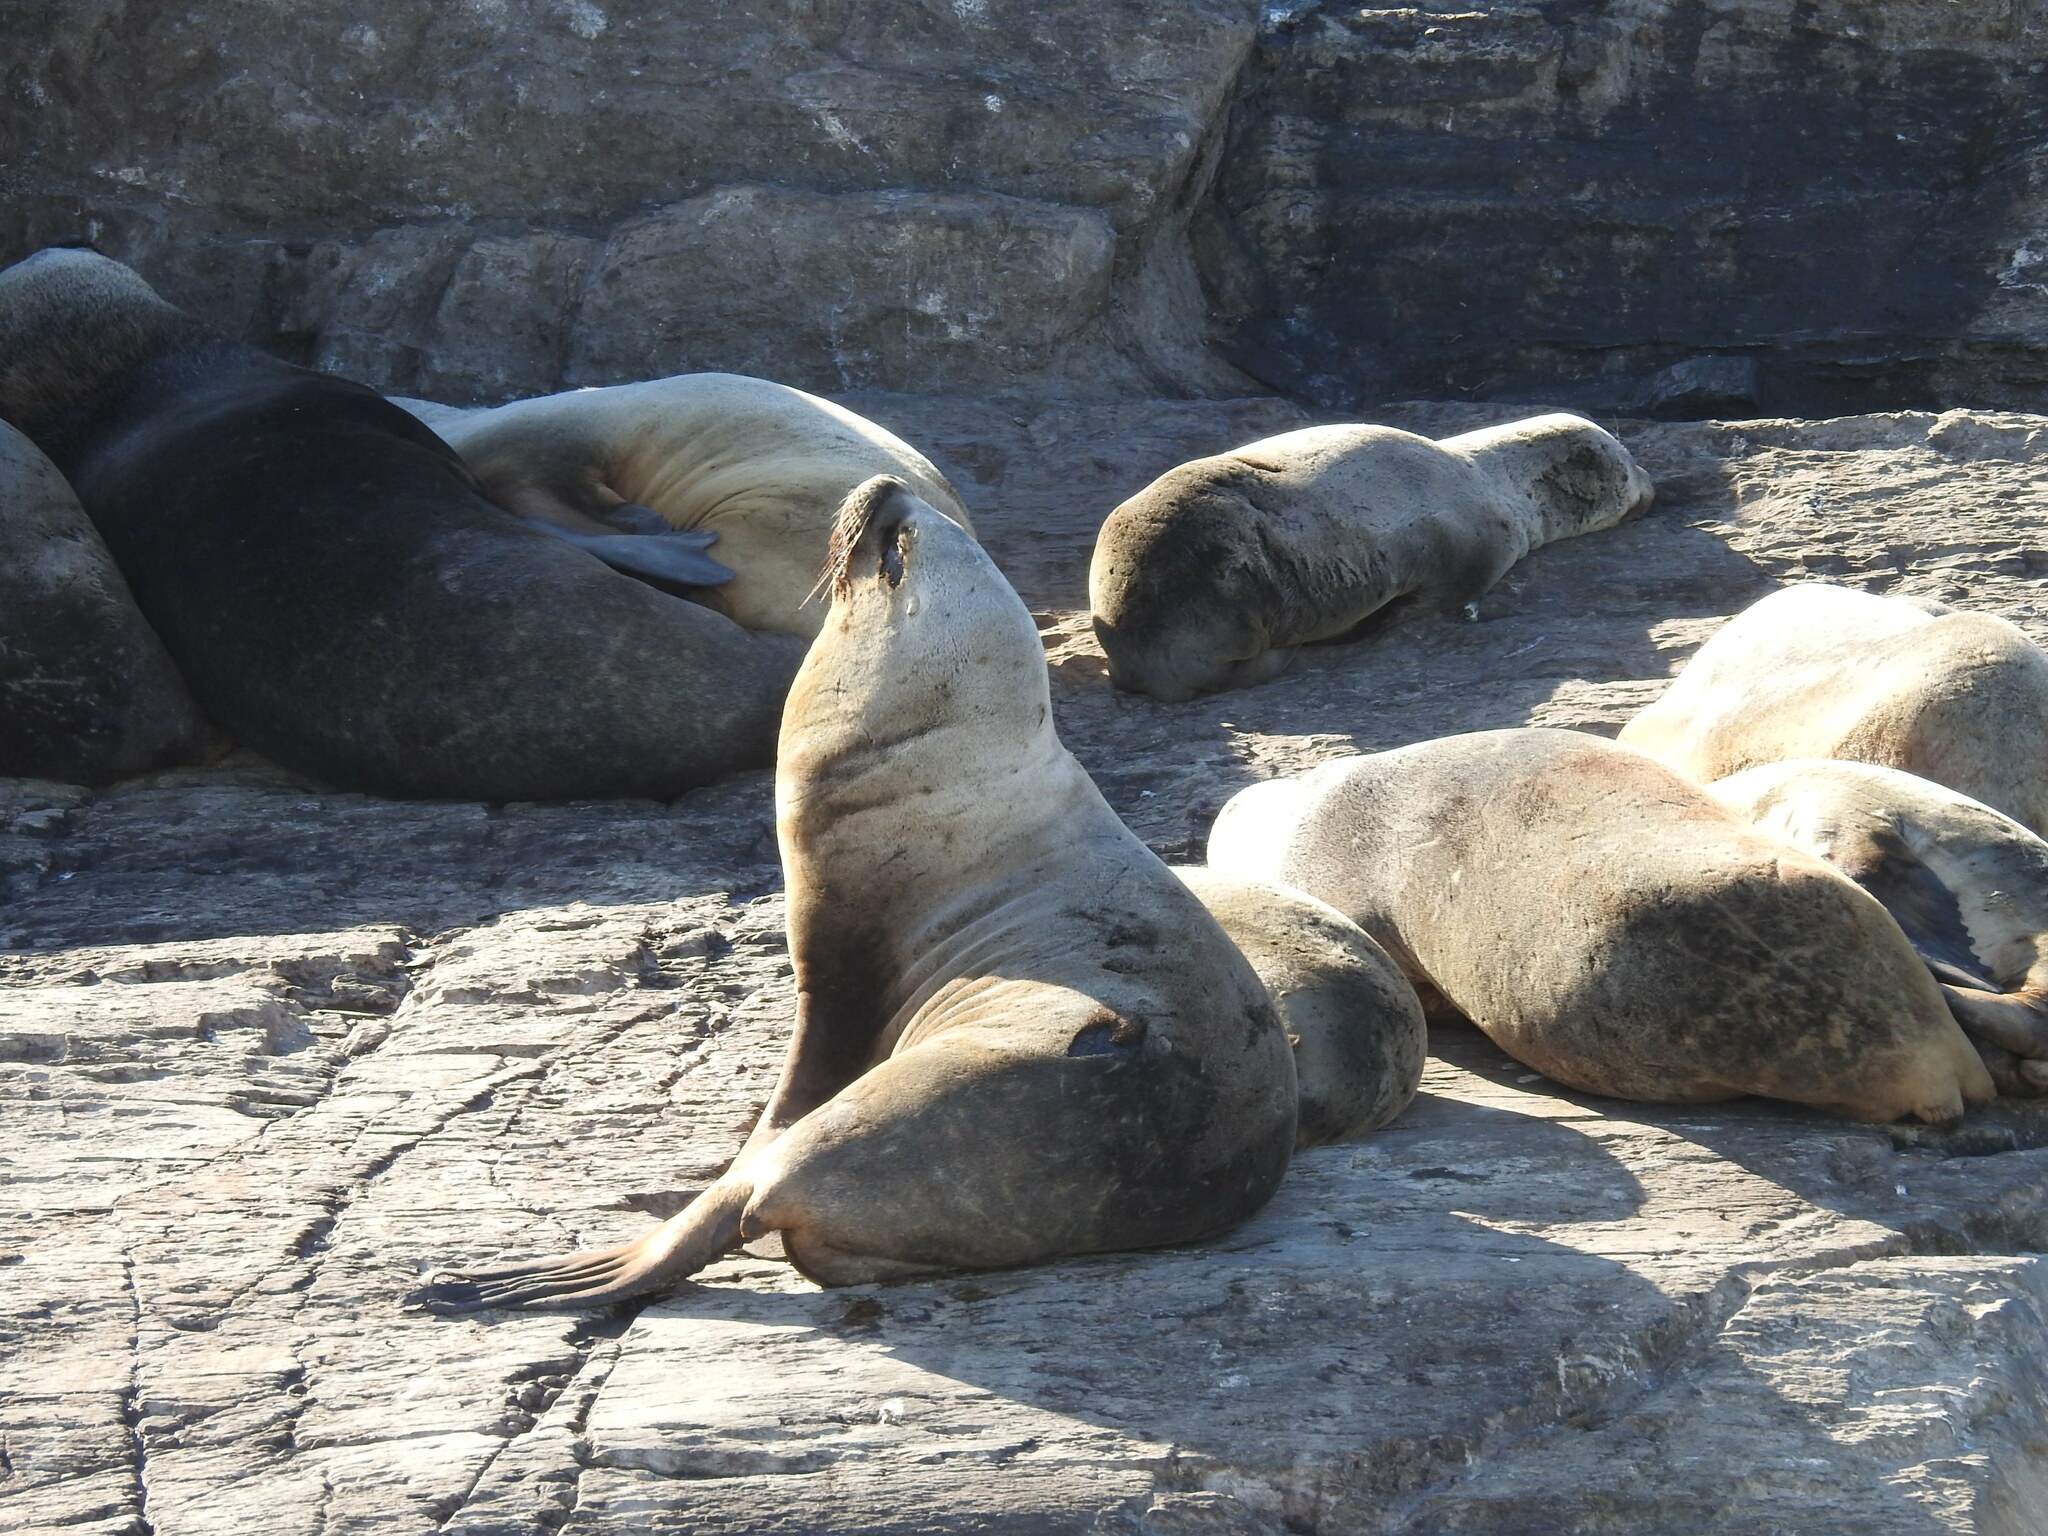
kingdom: Animalia
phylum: Chordata
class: Mammalia
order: Carnivora
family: Otariidae
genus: Otaria
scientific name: Otaria byronia
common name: South american sea lion
